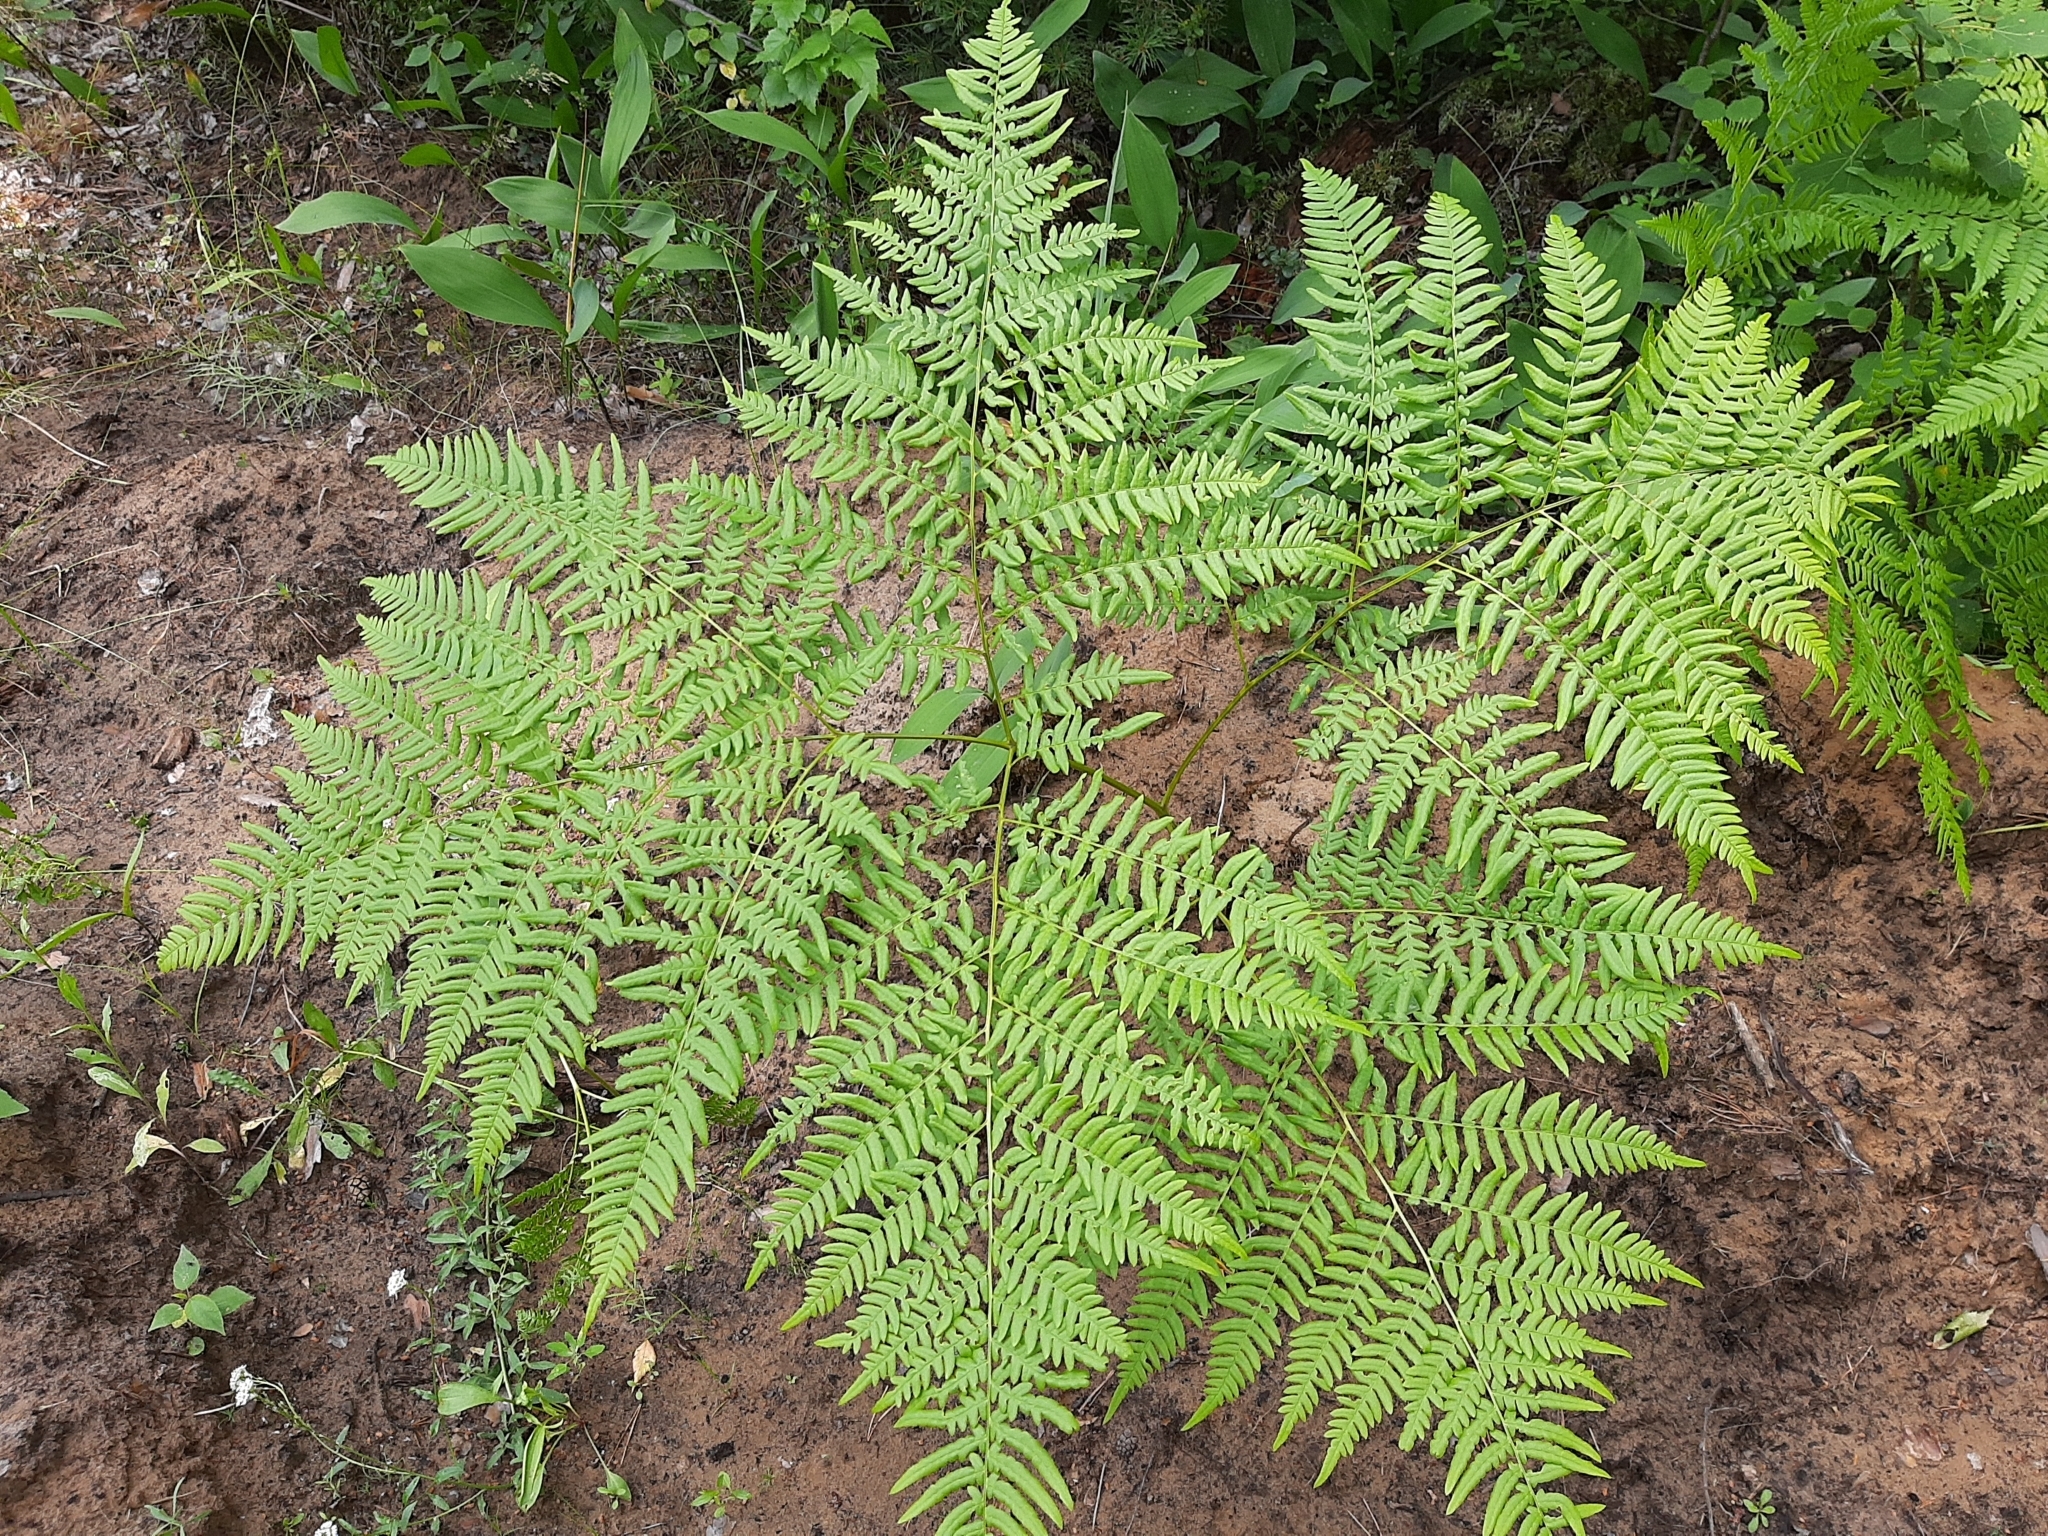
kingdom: Plantae
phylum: Tracheophyta
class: Polypodiopsida
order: Polypodiales
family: Dennstaedtiaceae
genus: Pteridium
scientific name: Pteridium aquilinum
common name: Bracken
